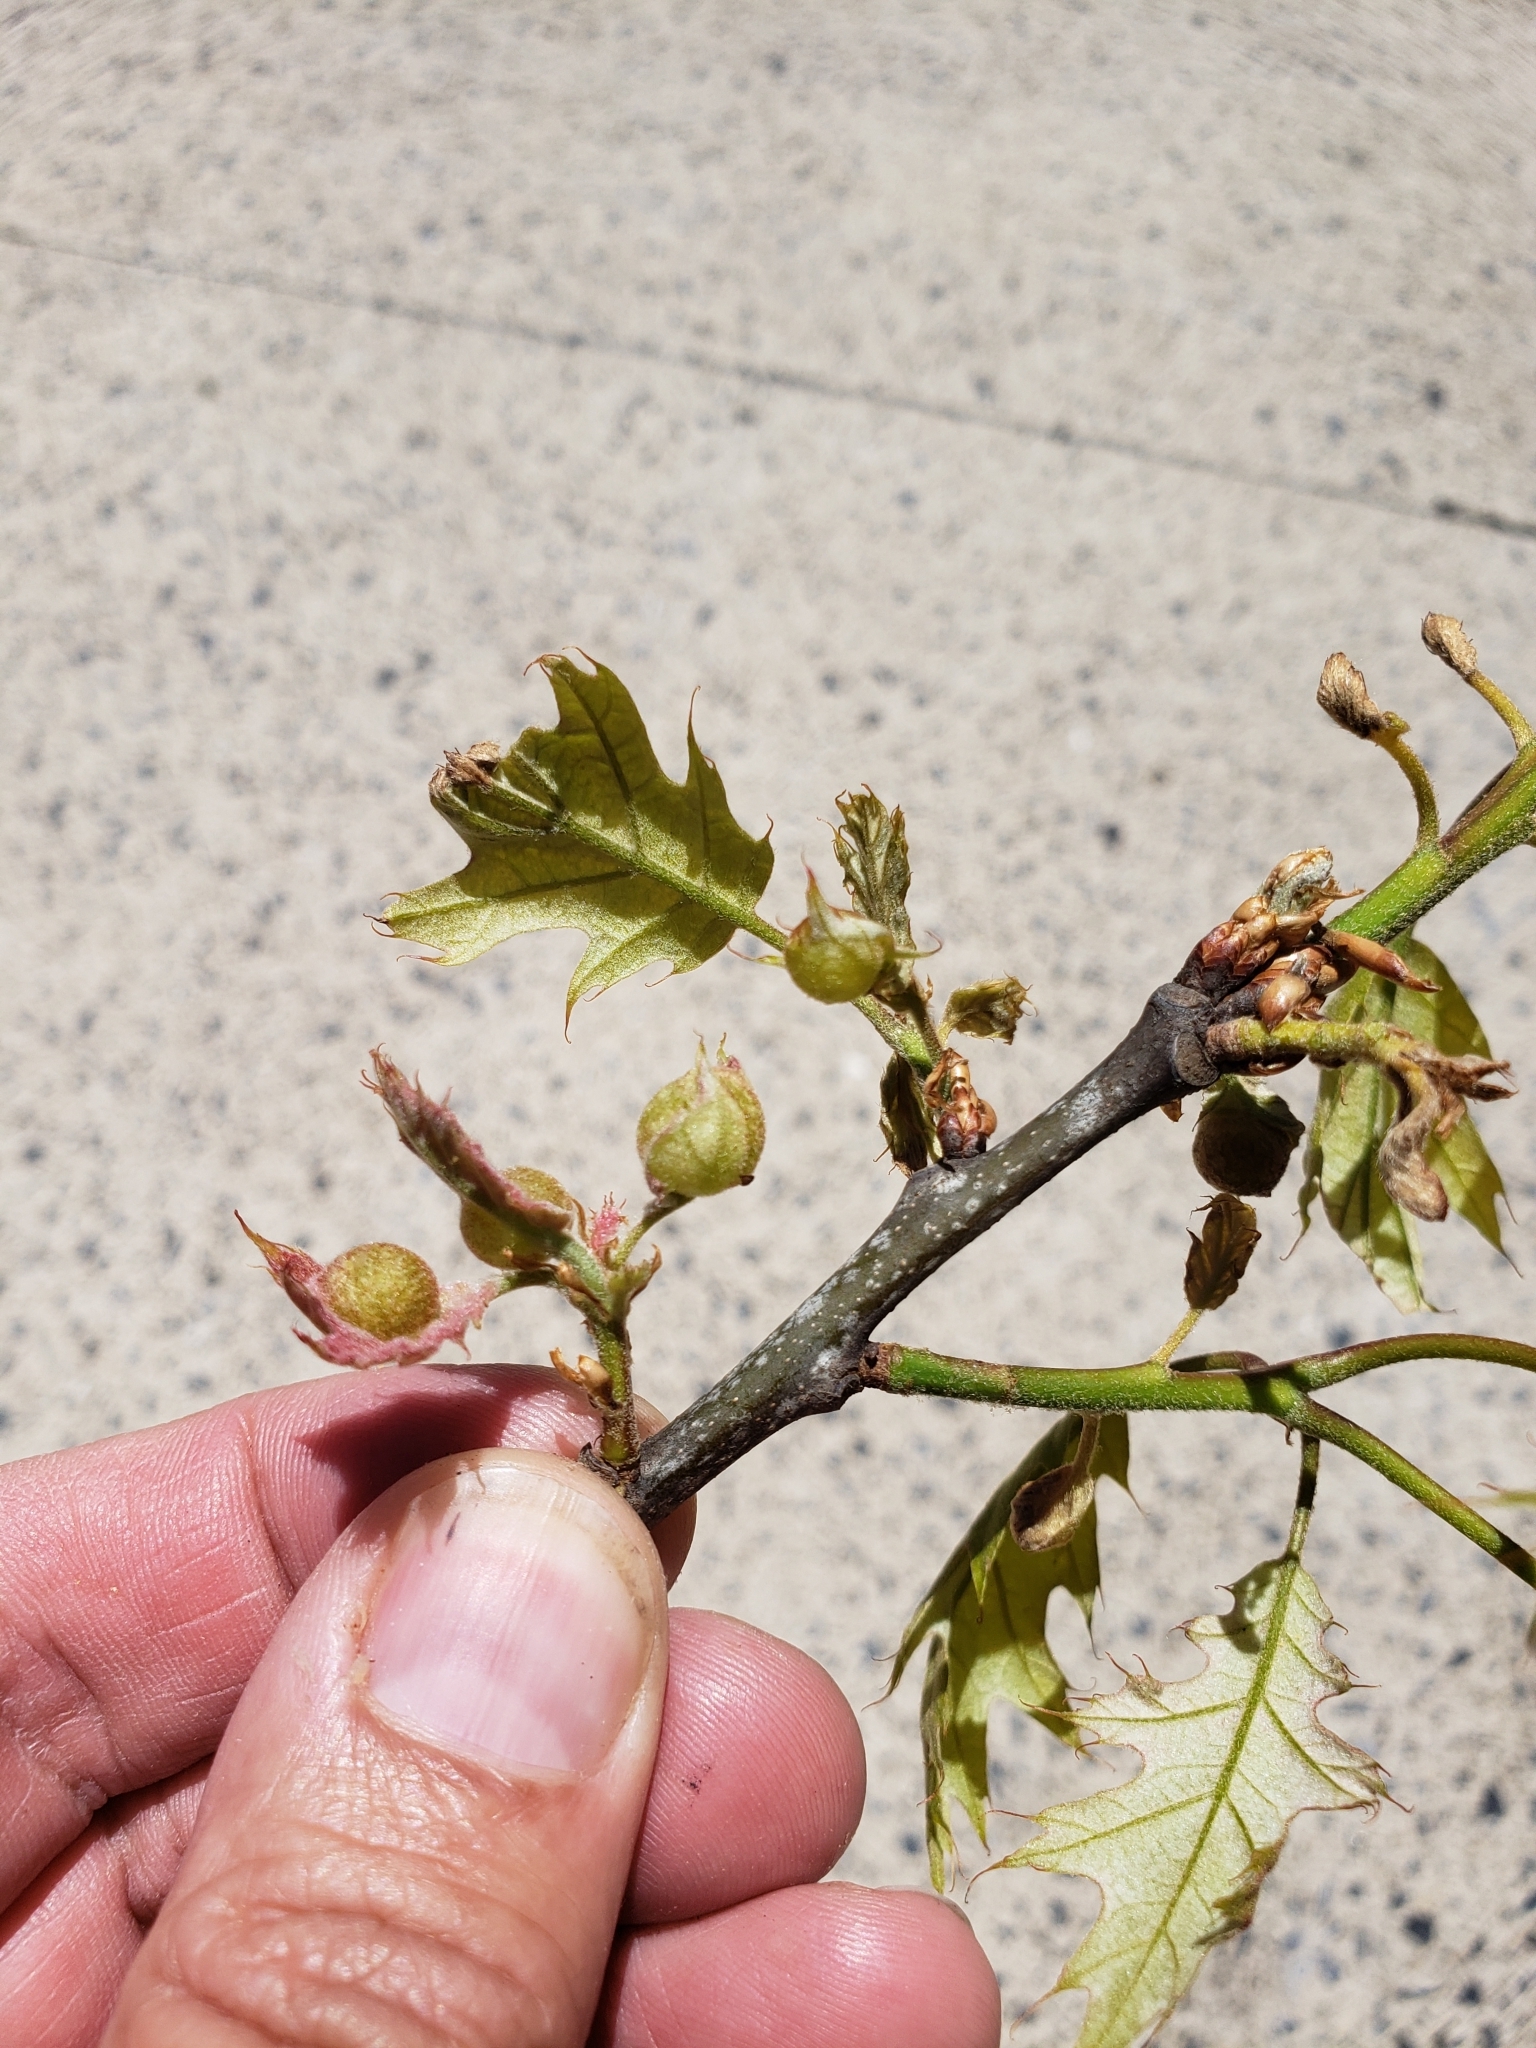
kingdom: Animalia
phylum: Arthropoda
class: Insecta
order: Hymenoptera
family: Cynipidae
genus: Dryocosmus
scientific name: Dryocosmus quercuspalustris
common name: Succulent oak gall wasp
